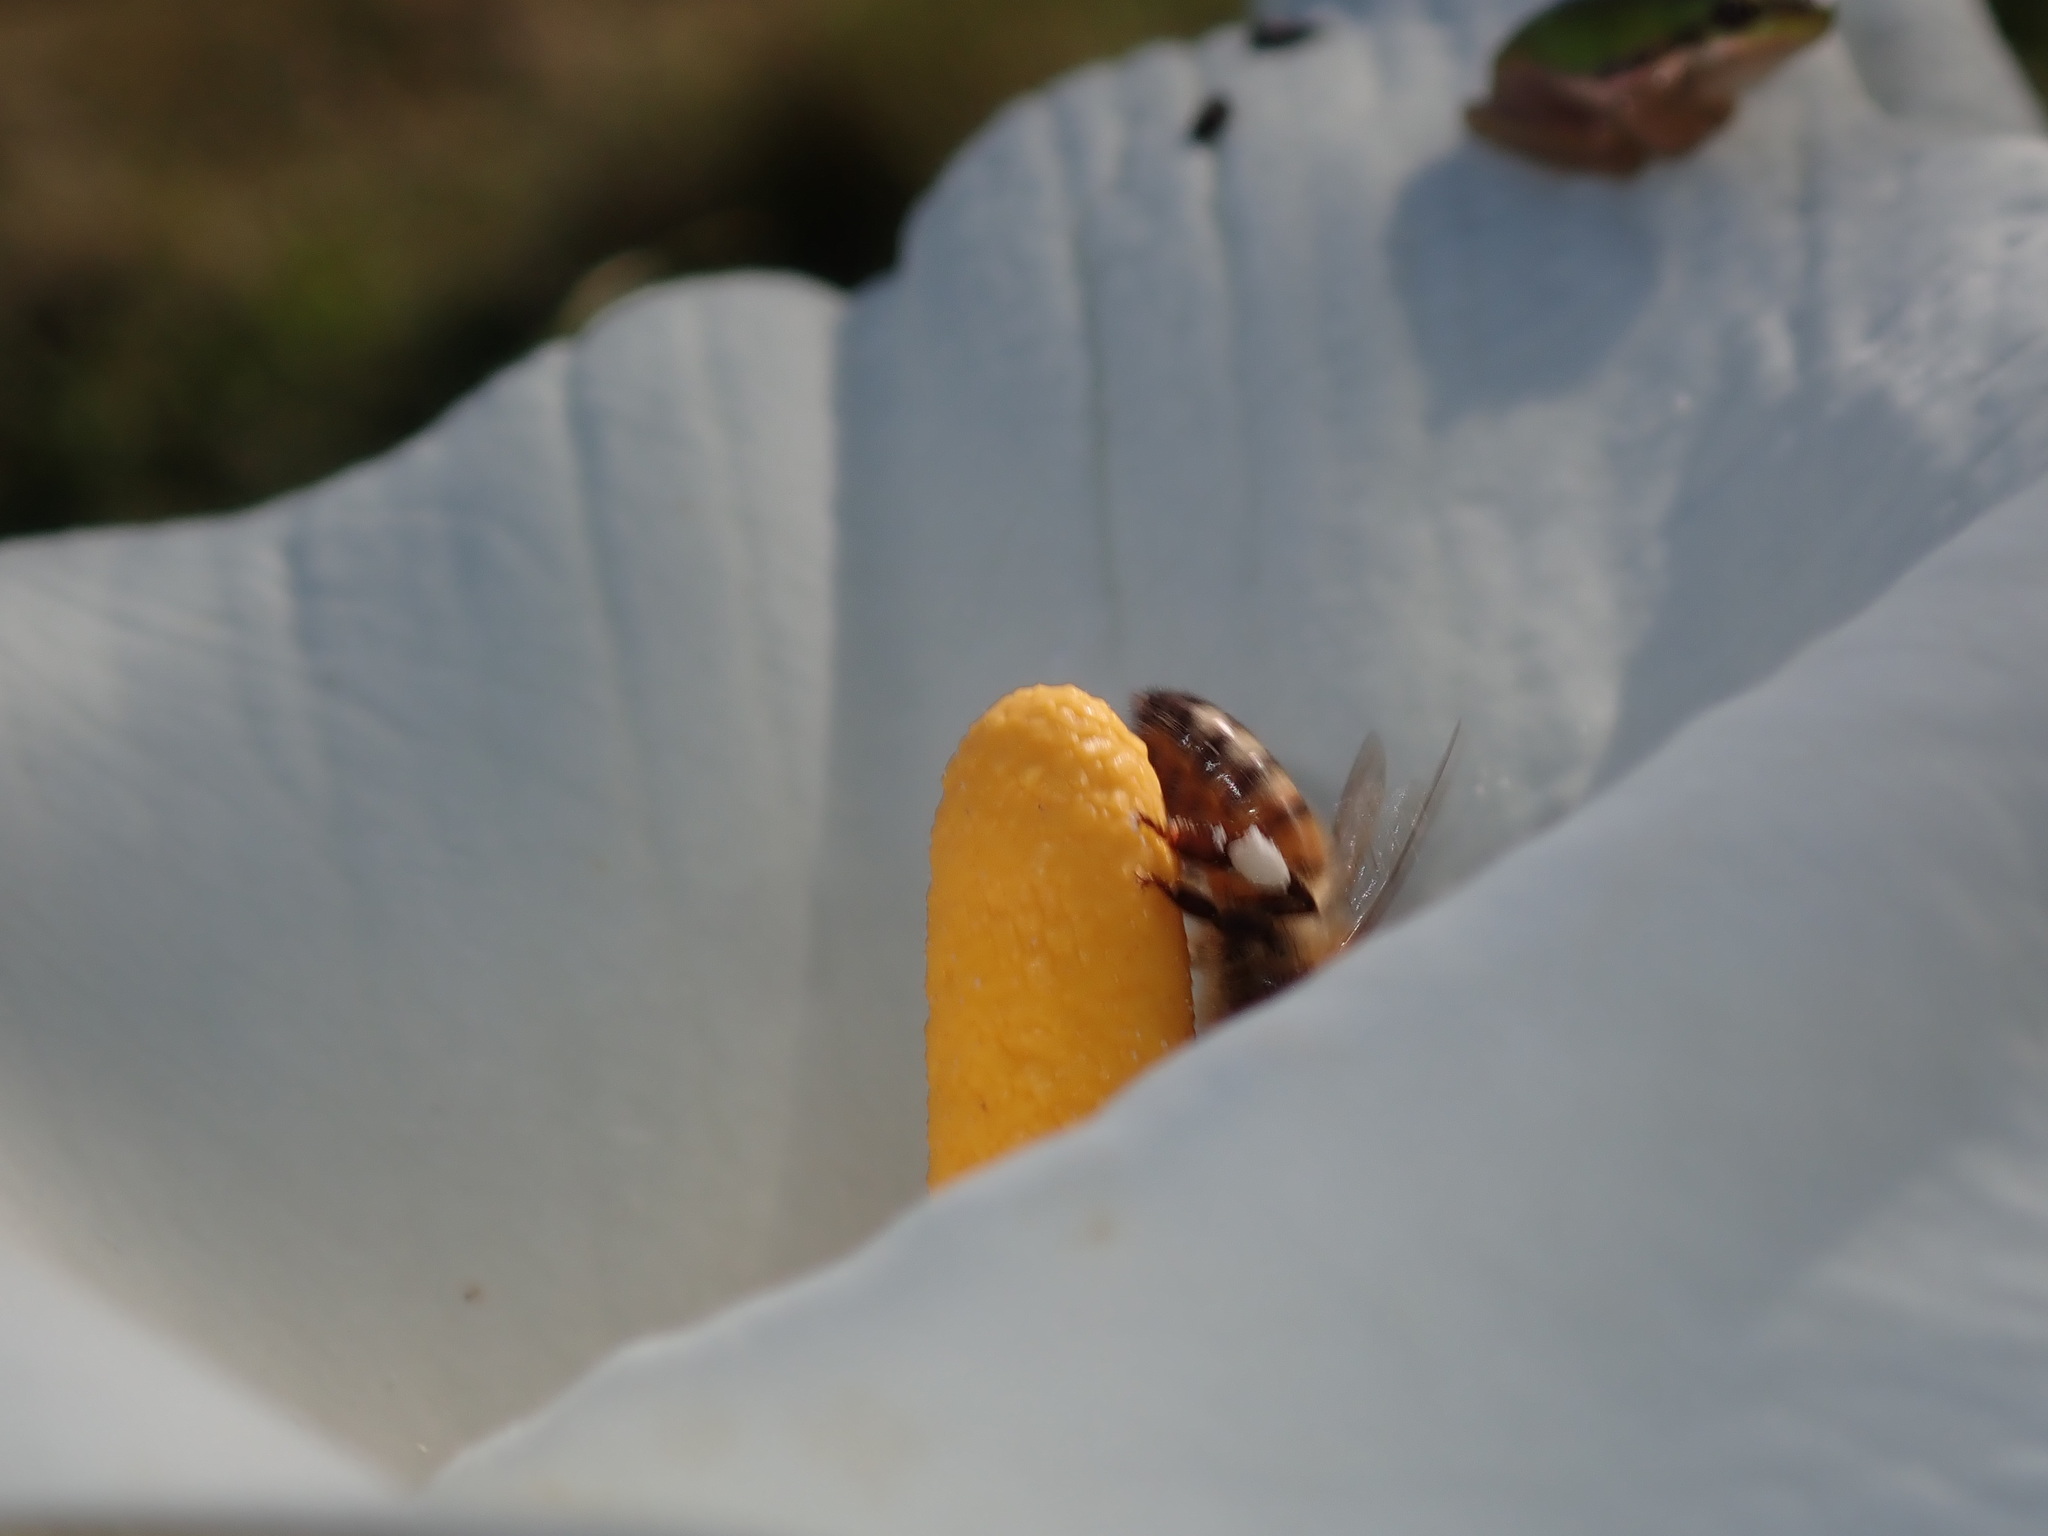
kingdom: Animalia
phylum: Arthropoda
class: Insecta
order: Hymenoptera
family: Apidae
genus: Apis
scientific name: Apis mellifera
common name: Honey bee
